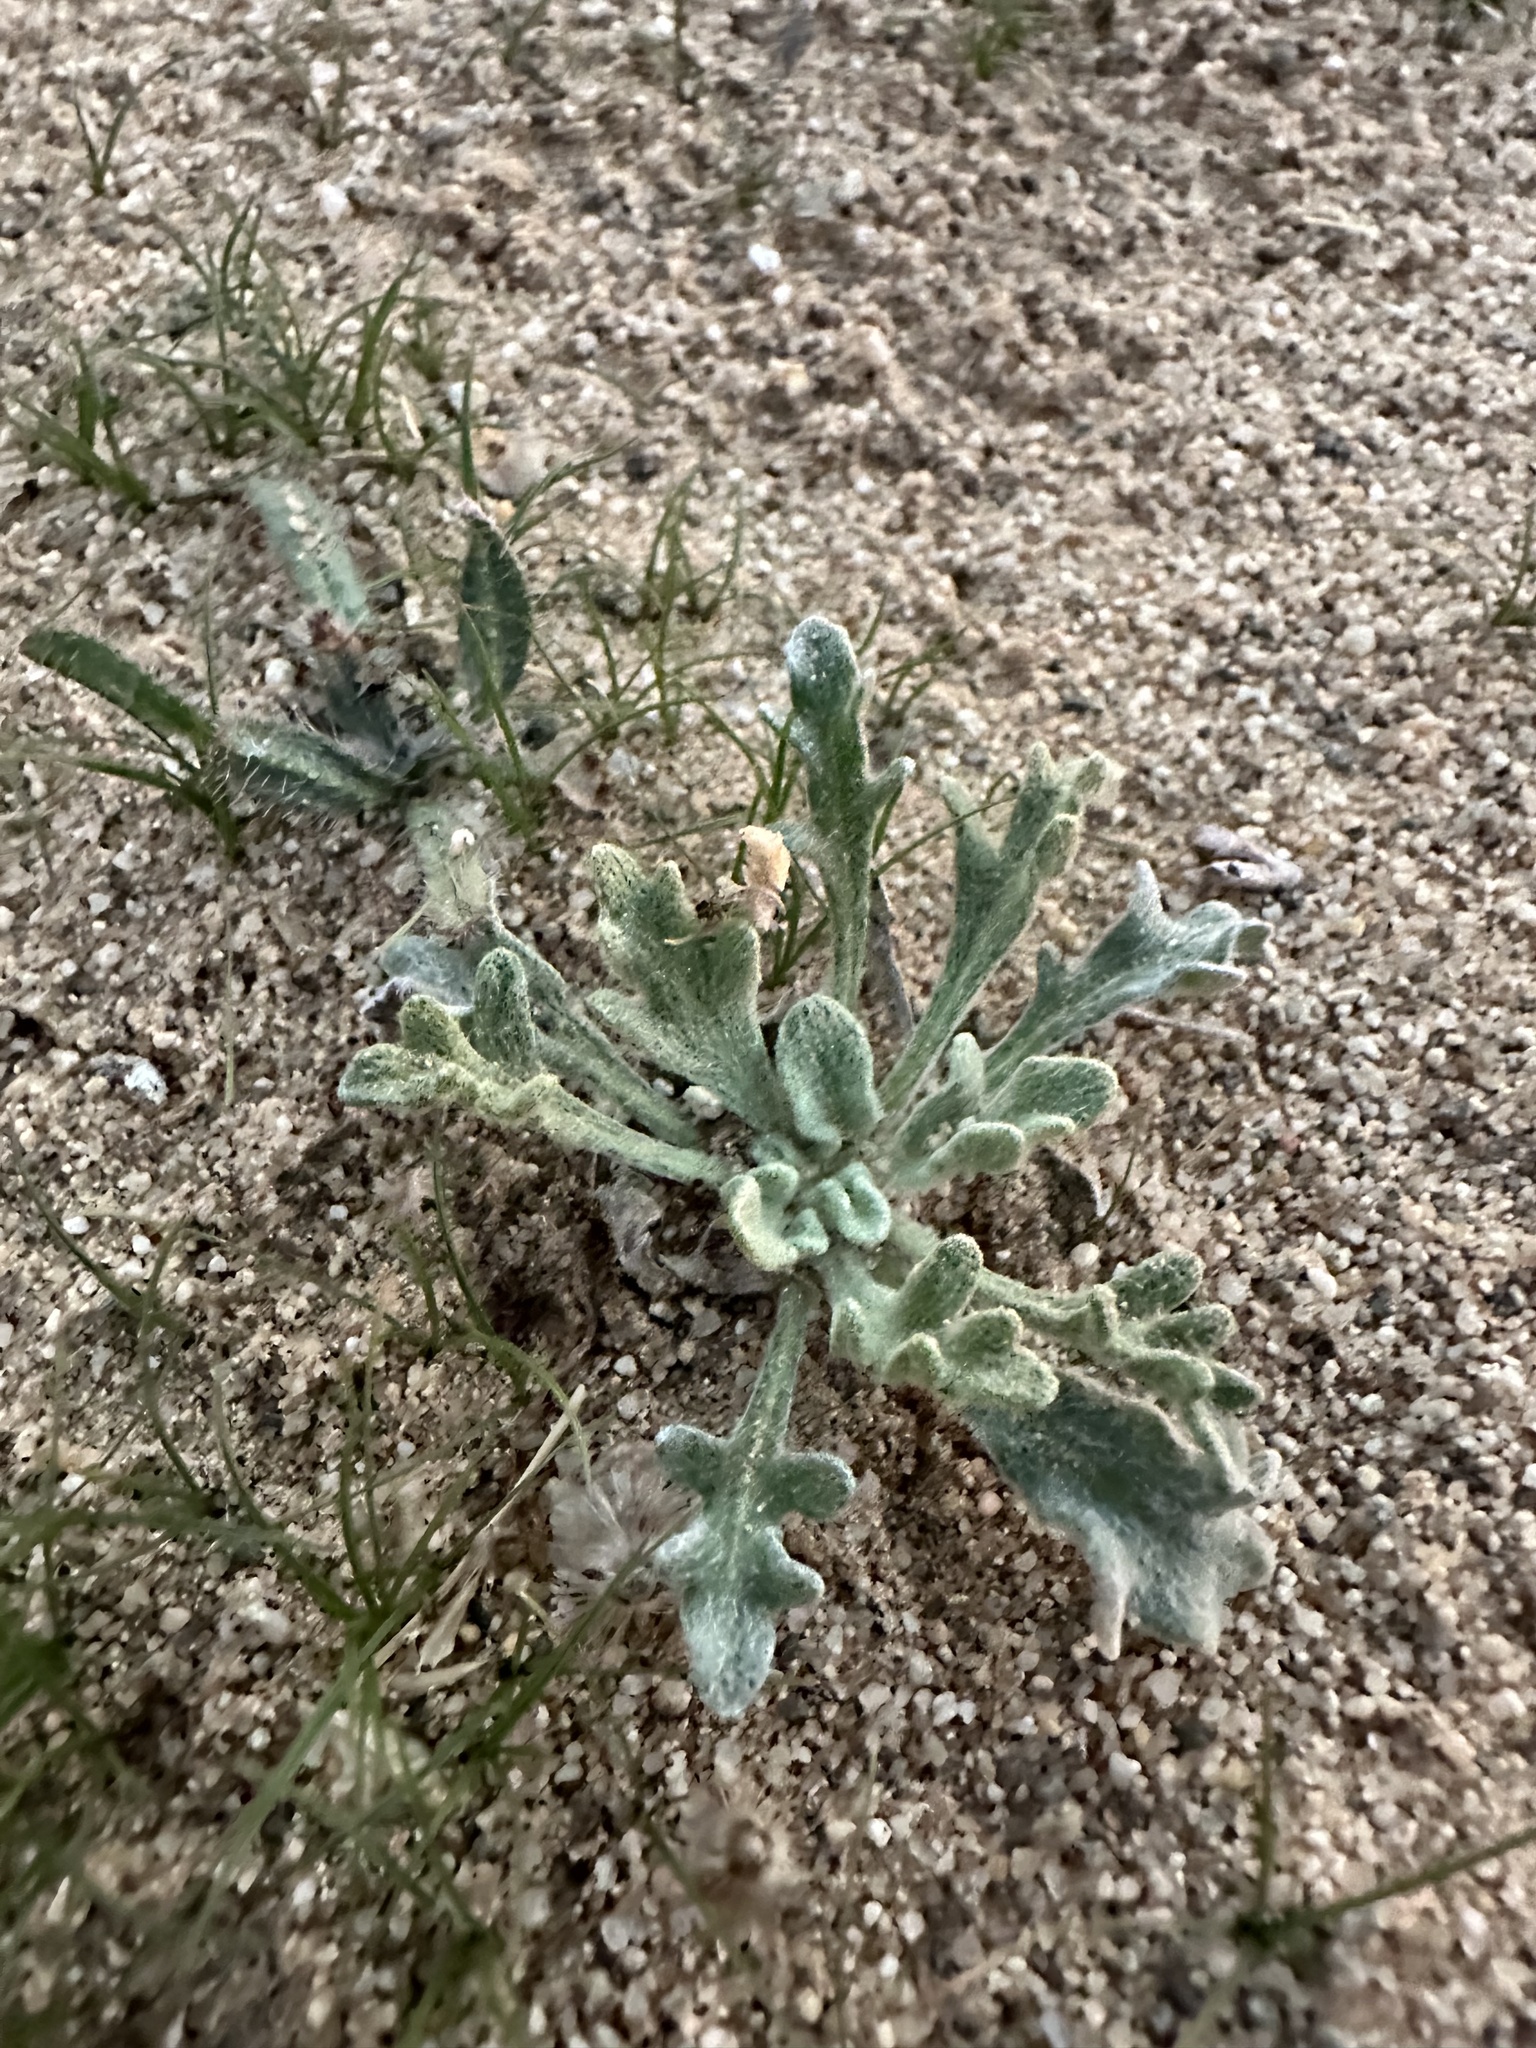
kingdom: Plantae
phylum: Tracheophyta
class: Magnoliopsida
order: Asterales
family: Asteraceae
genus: Baileya
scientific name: Baileya pleniradiata
